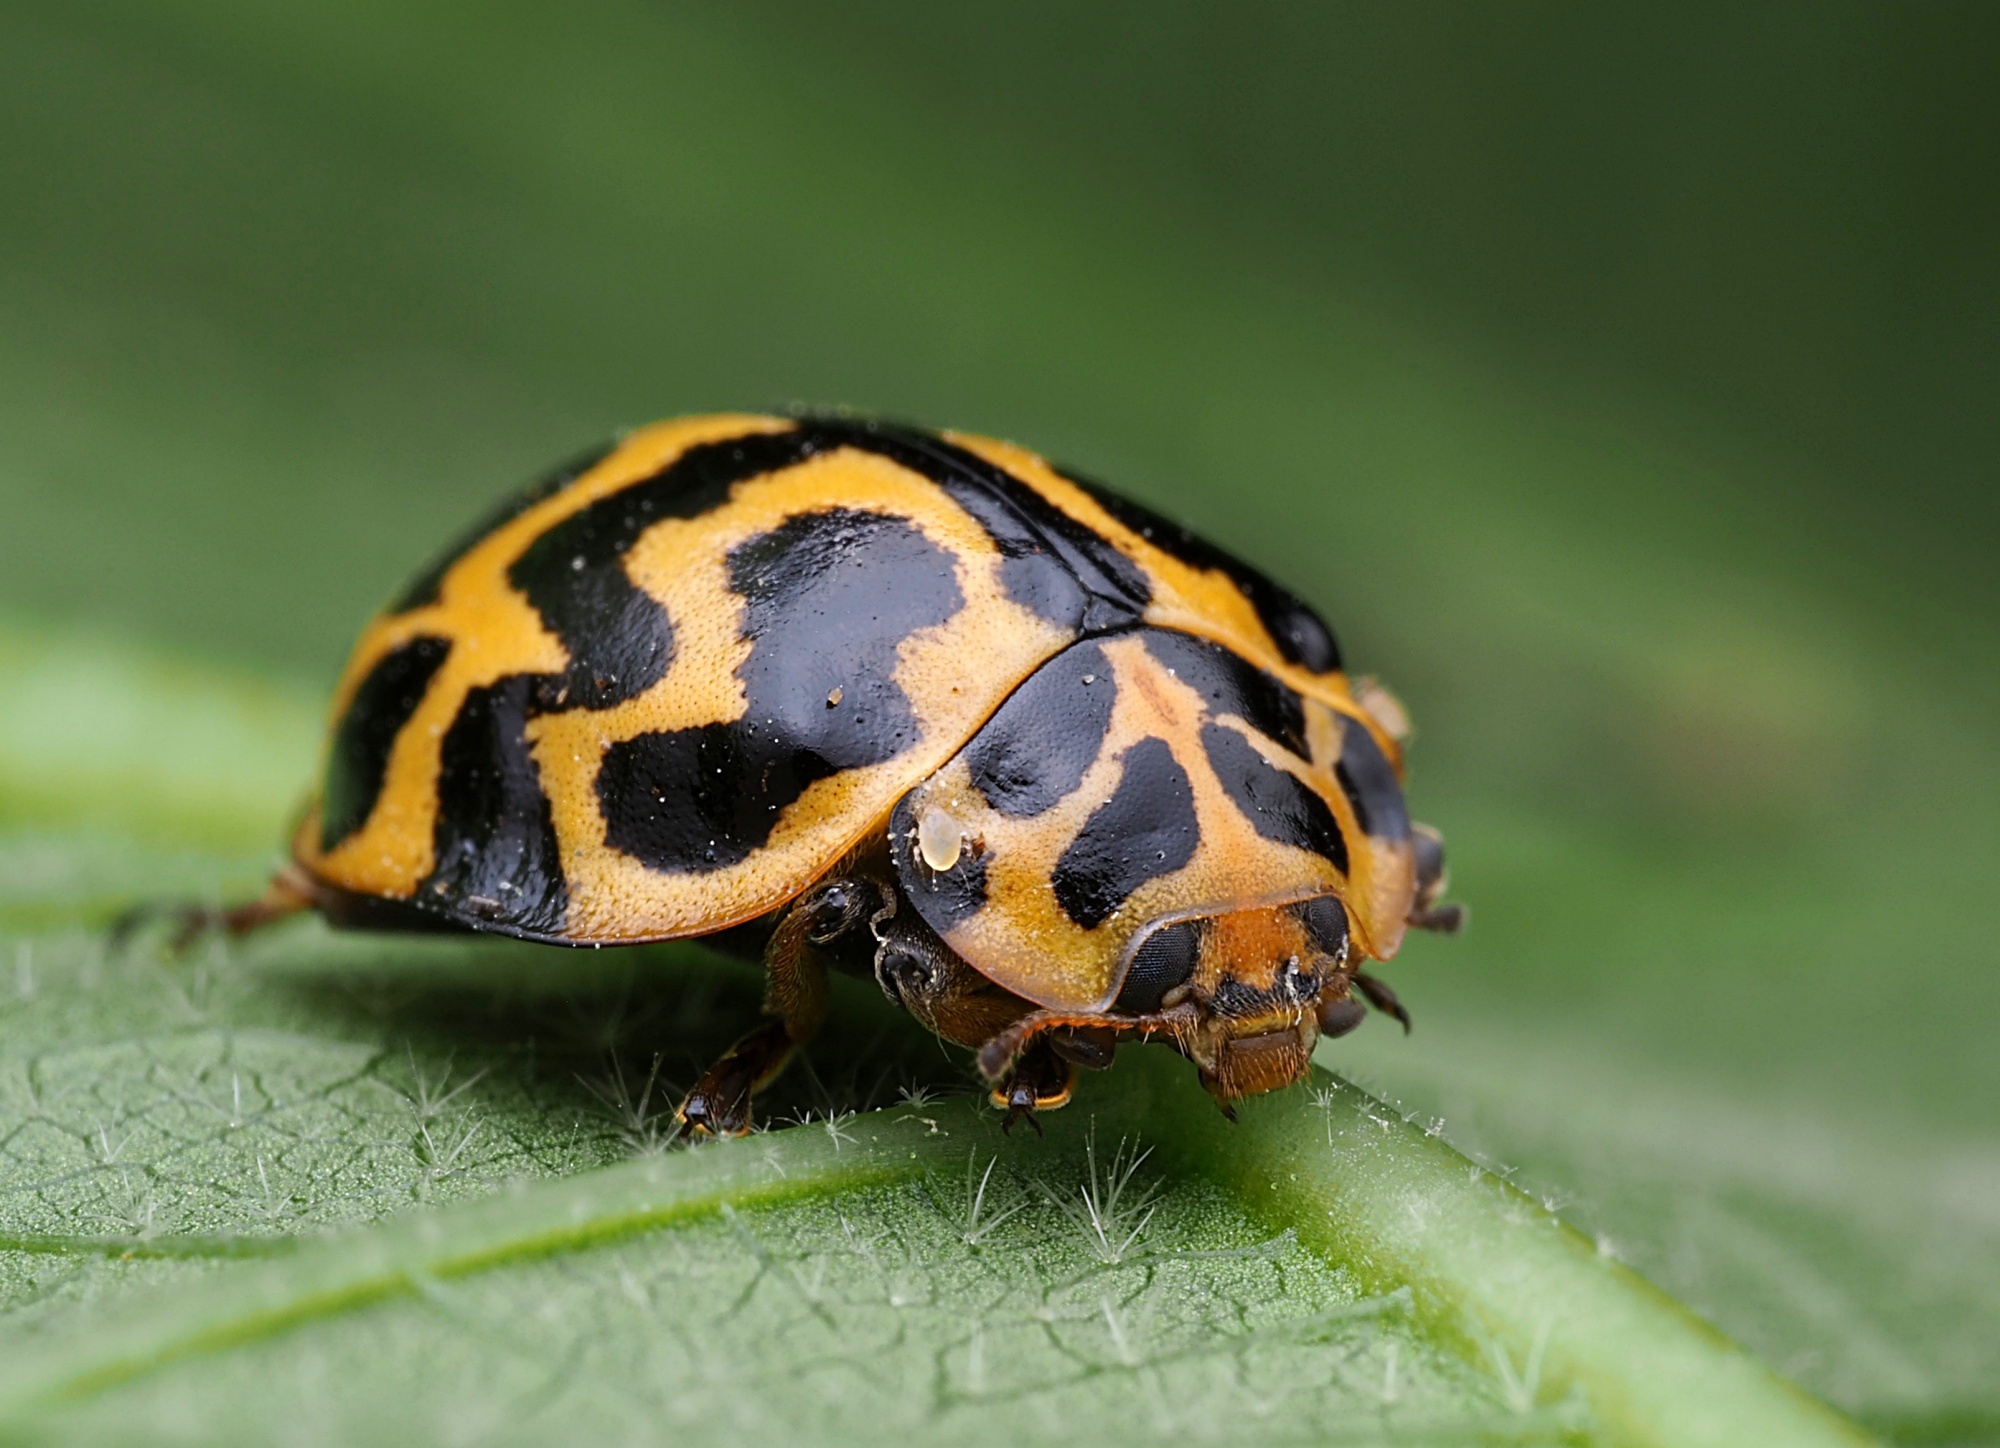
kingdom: Animalia
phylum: Arthropoda
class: Insecta
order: Coleoptera
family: Coccinellidae
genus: Cleobora
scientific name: Cleobora
